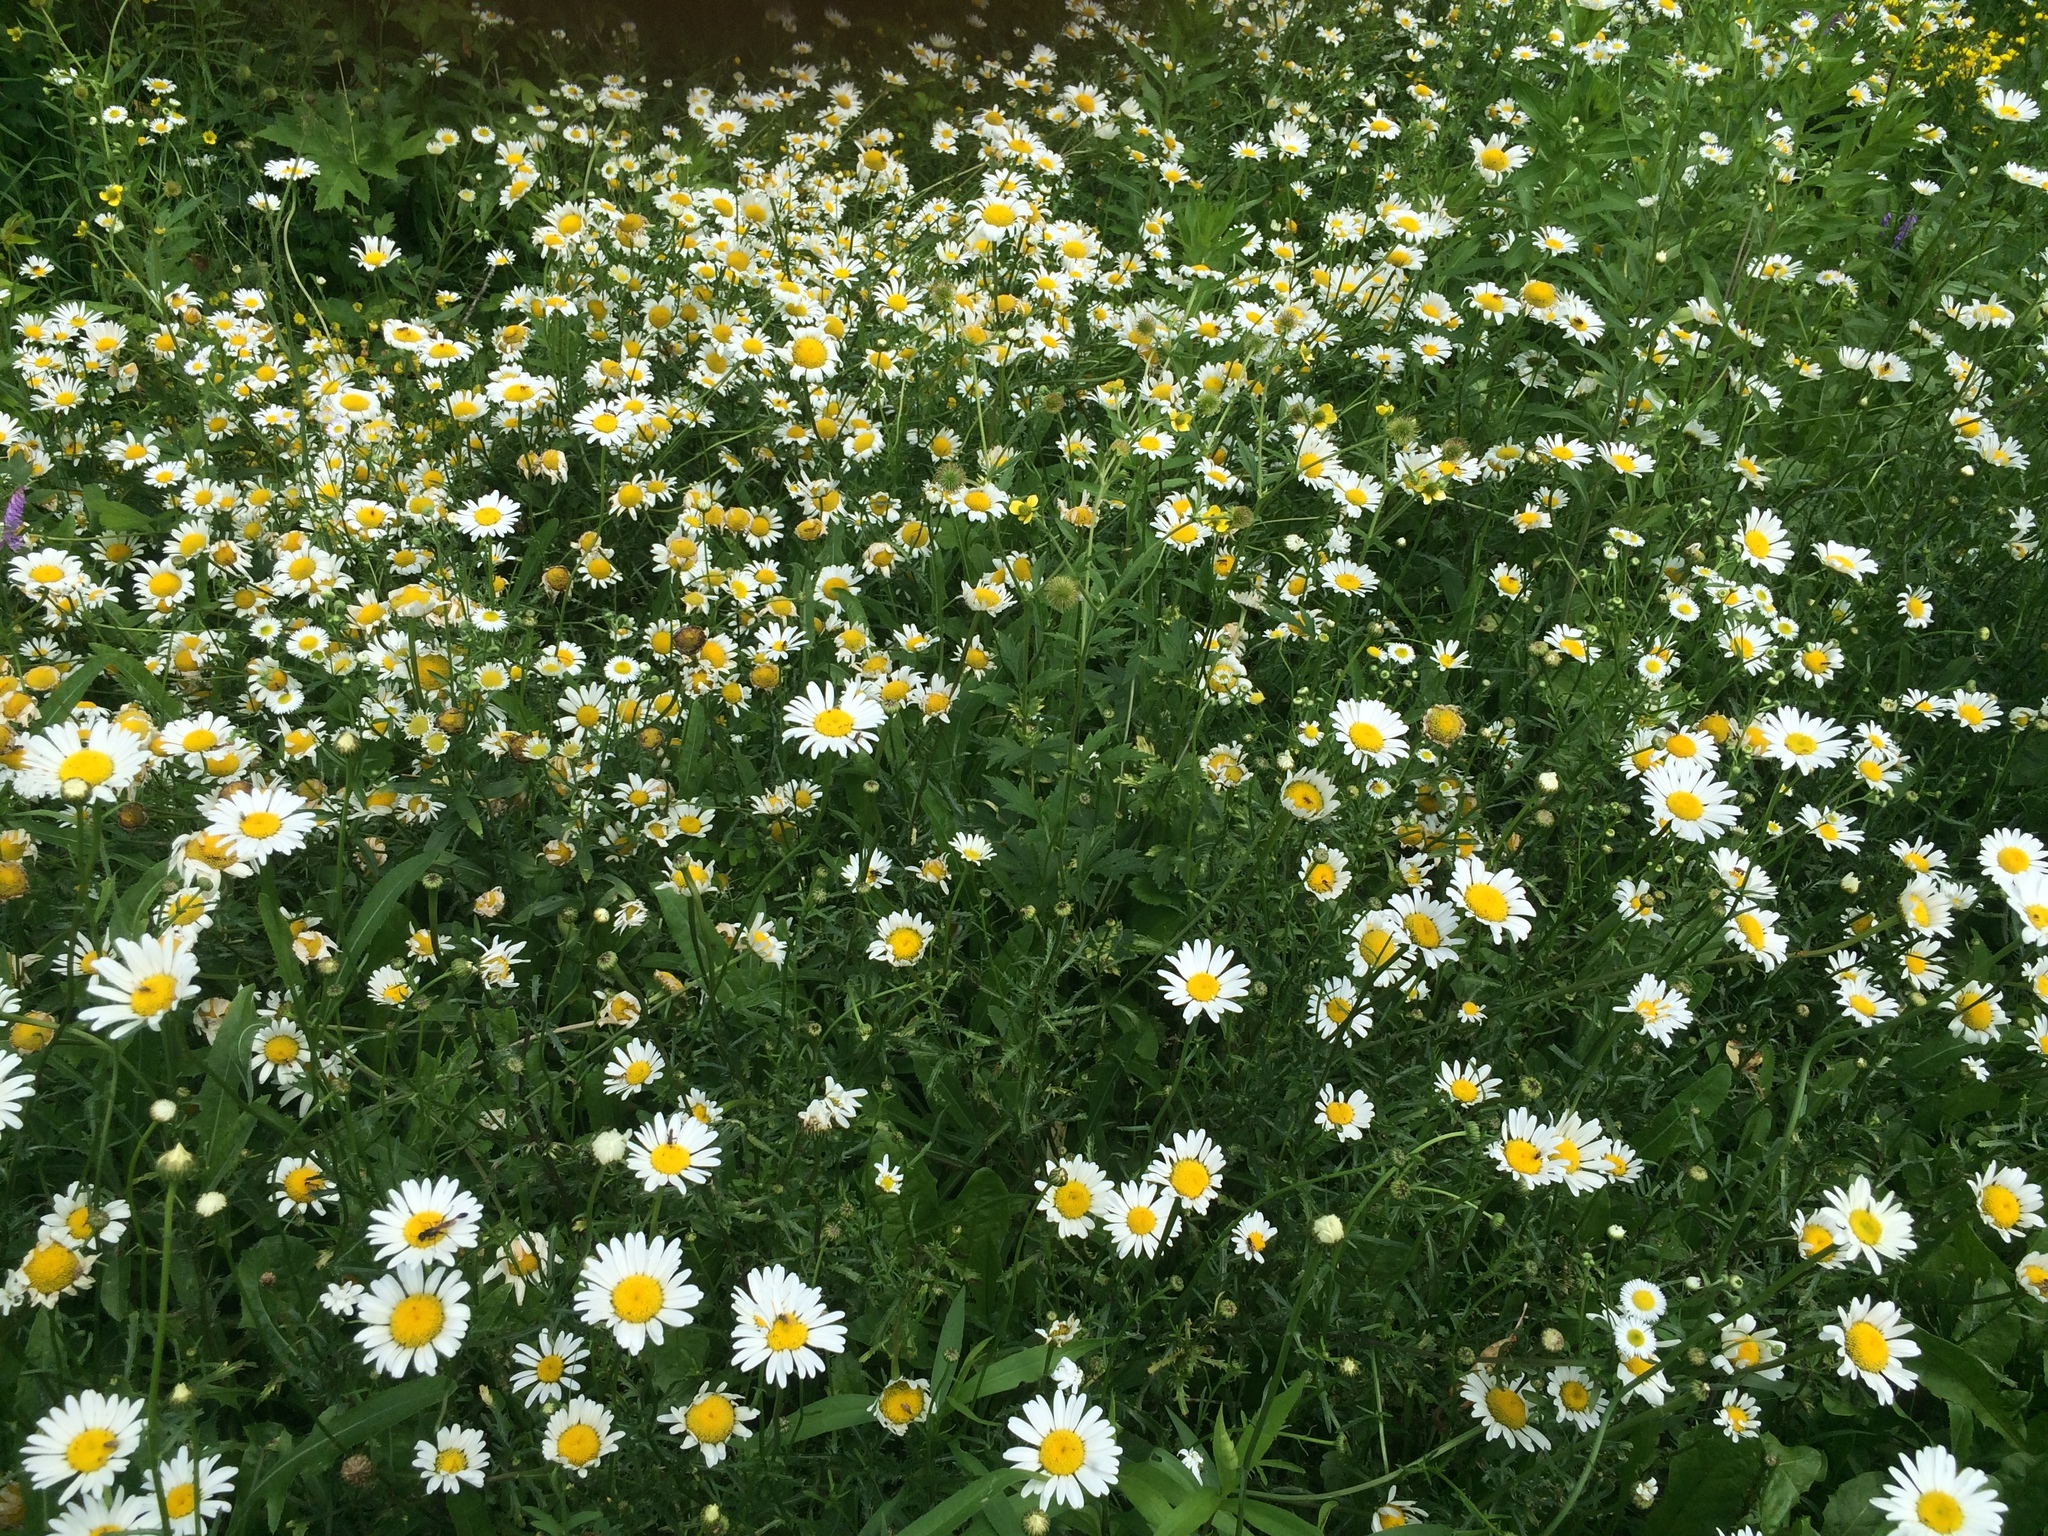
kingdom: Plantae
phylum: Tracheophyta
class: Magnoliopsida
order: Asterales
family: Asteraceae
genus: Leucanthemum
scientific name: Leucanthemum vulgare
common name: Oxeye daisy
